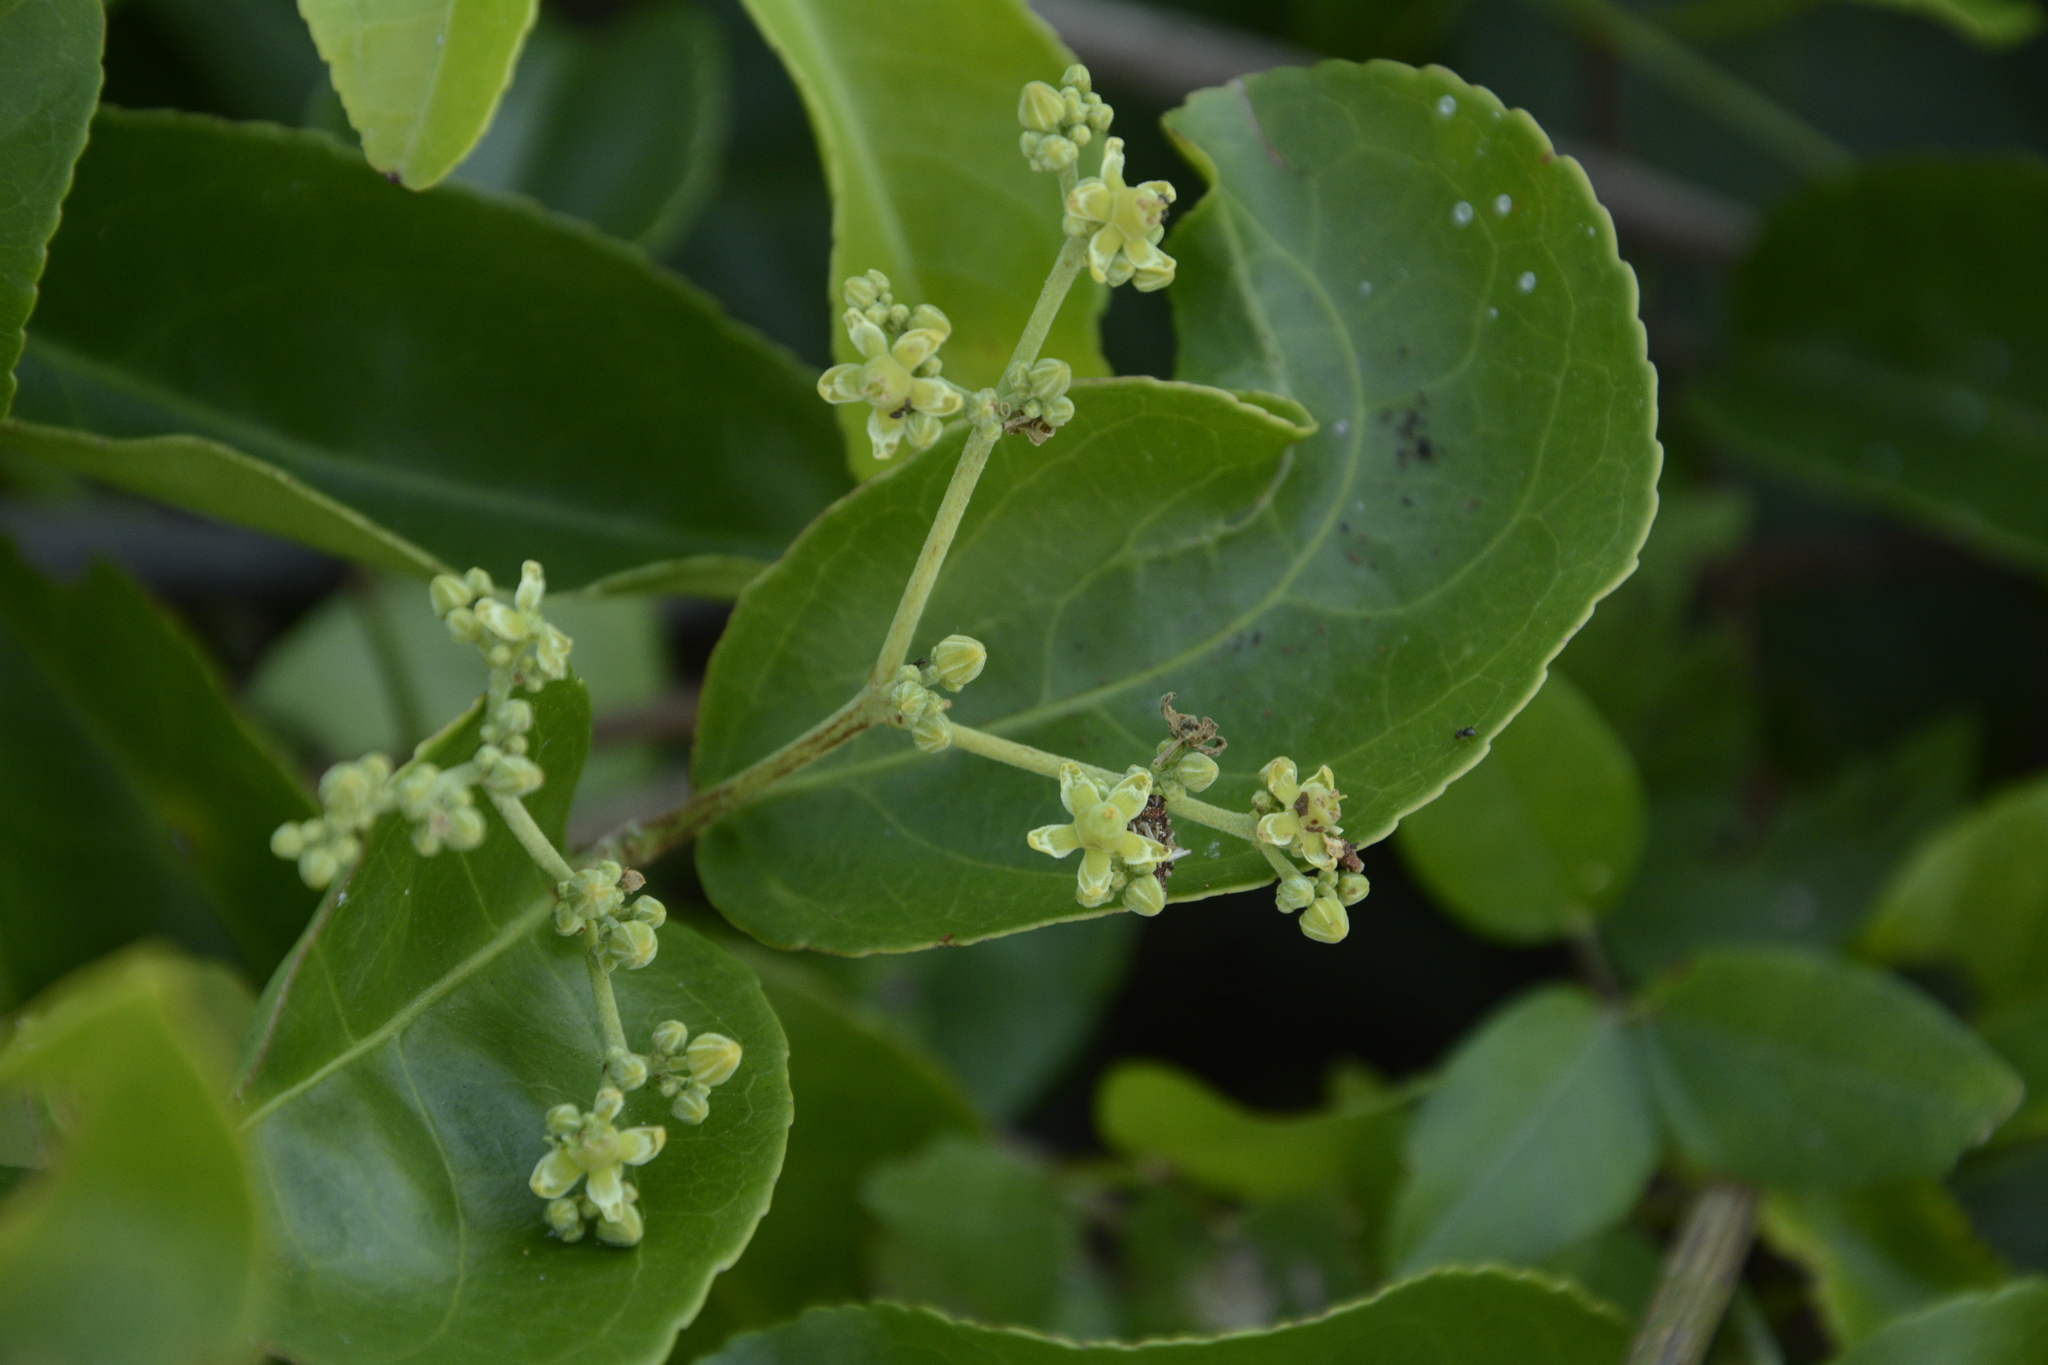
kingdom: Plantae
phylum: Tracheophyta
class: Magnoliopsida
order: Celastrales
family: Celastraceae
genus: Hippocratea
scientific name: Hippocratea volubilis
